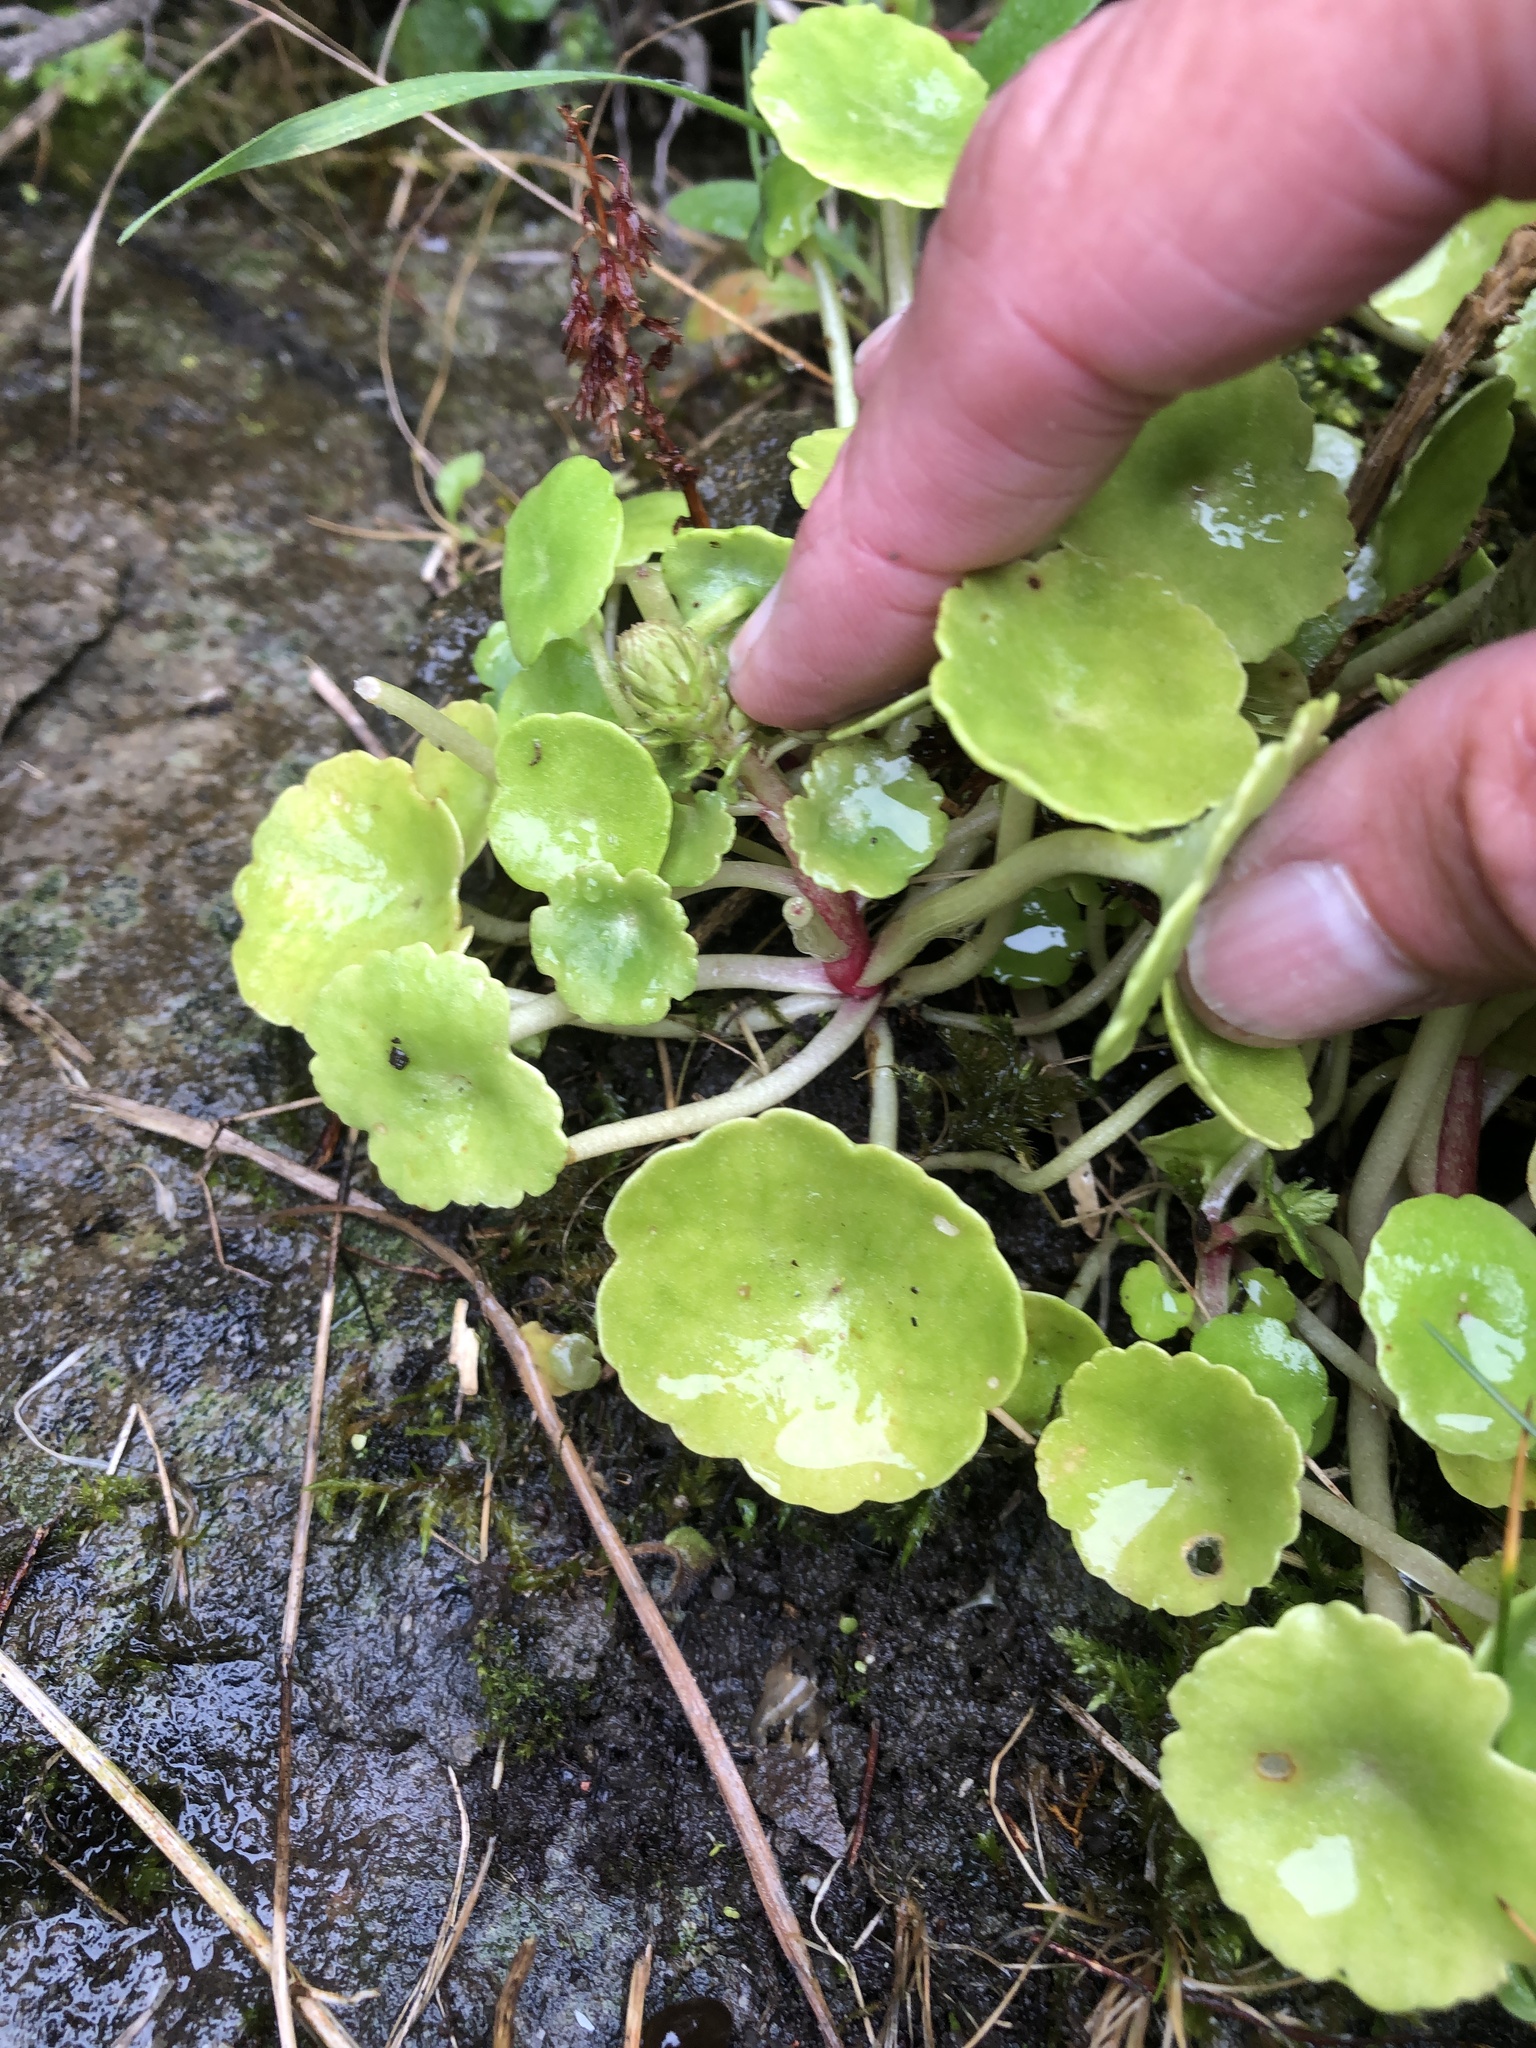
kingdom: Plantae
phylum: Tracheophyta
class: Magnoliopsida
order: Saxifragales
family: Crassulaceae
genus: Umbilicus
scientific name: Umbilicus rupestris
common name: Navelwort
